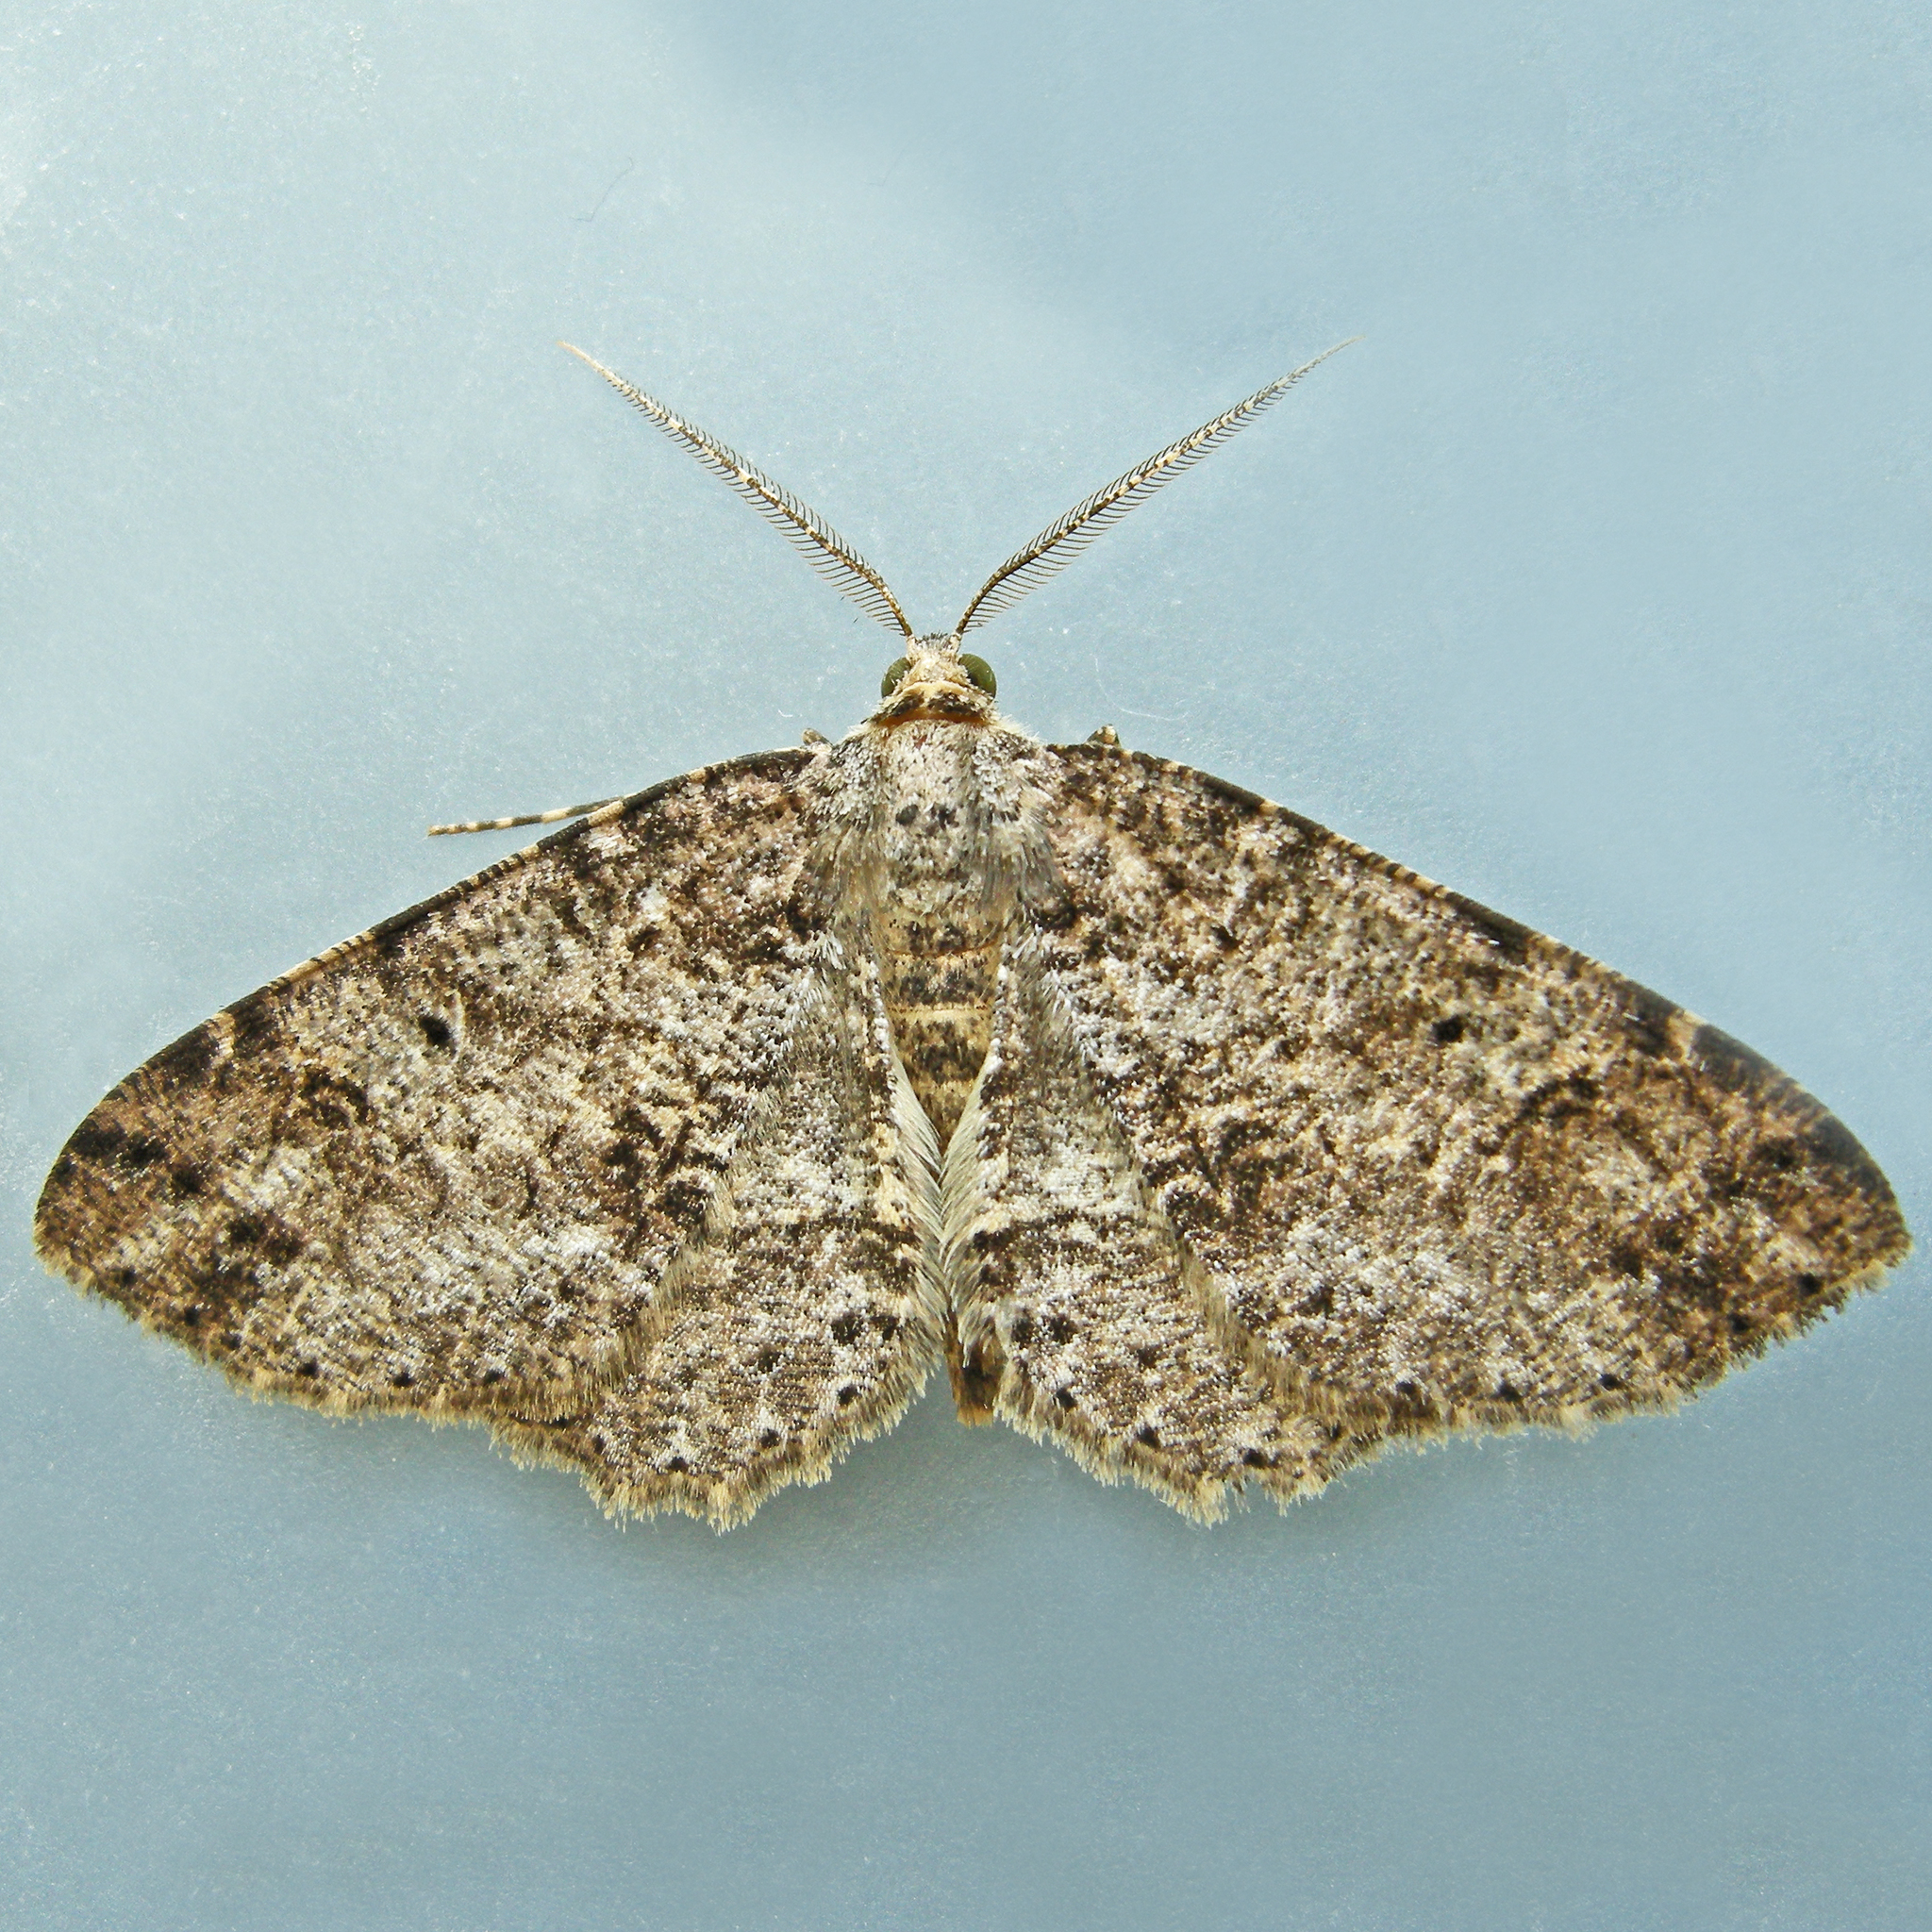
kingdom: Animalia
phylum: Arthropoda
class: Insecta
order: Lepidoptera
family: Geometridae
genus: Melanolophia
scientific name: Melanolophia canadaria
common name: Canadian melanolophia
